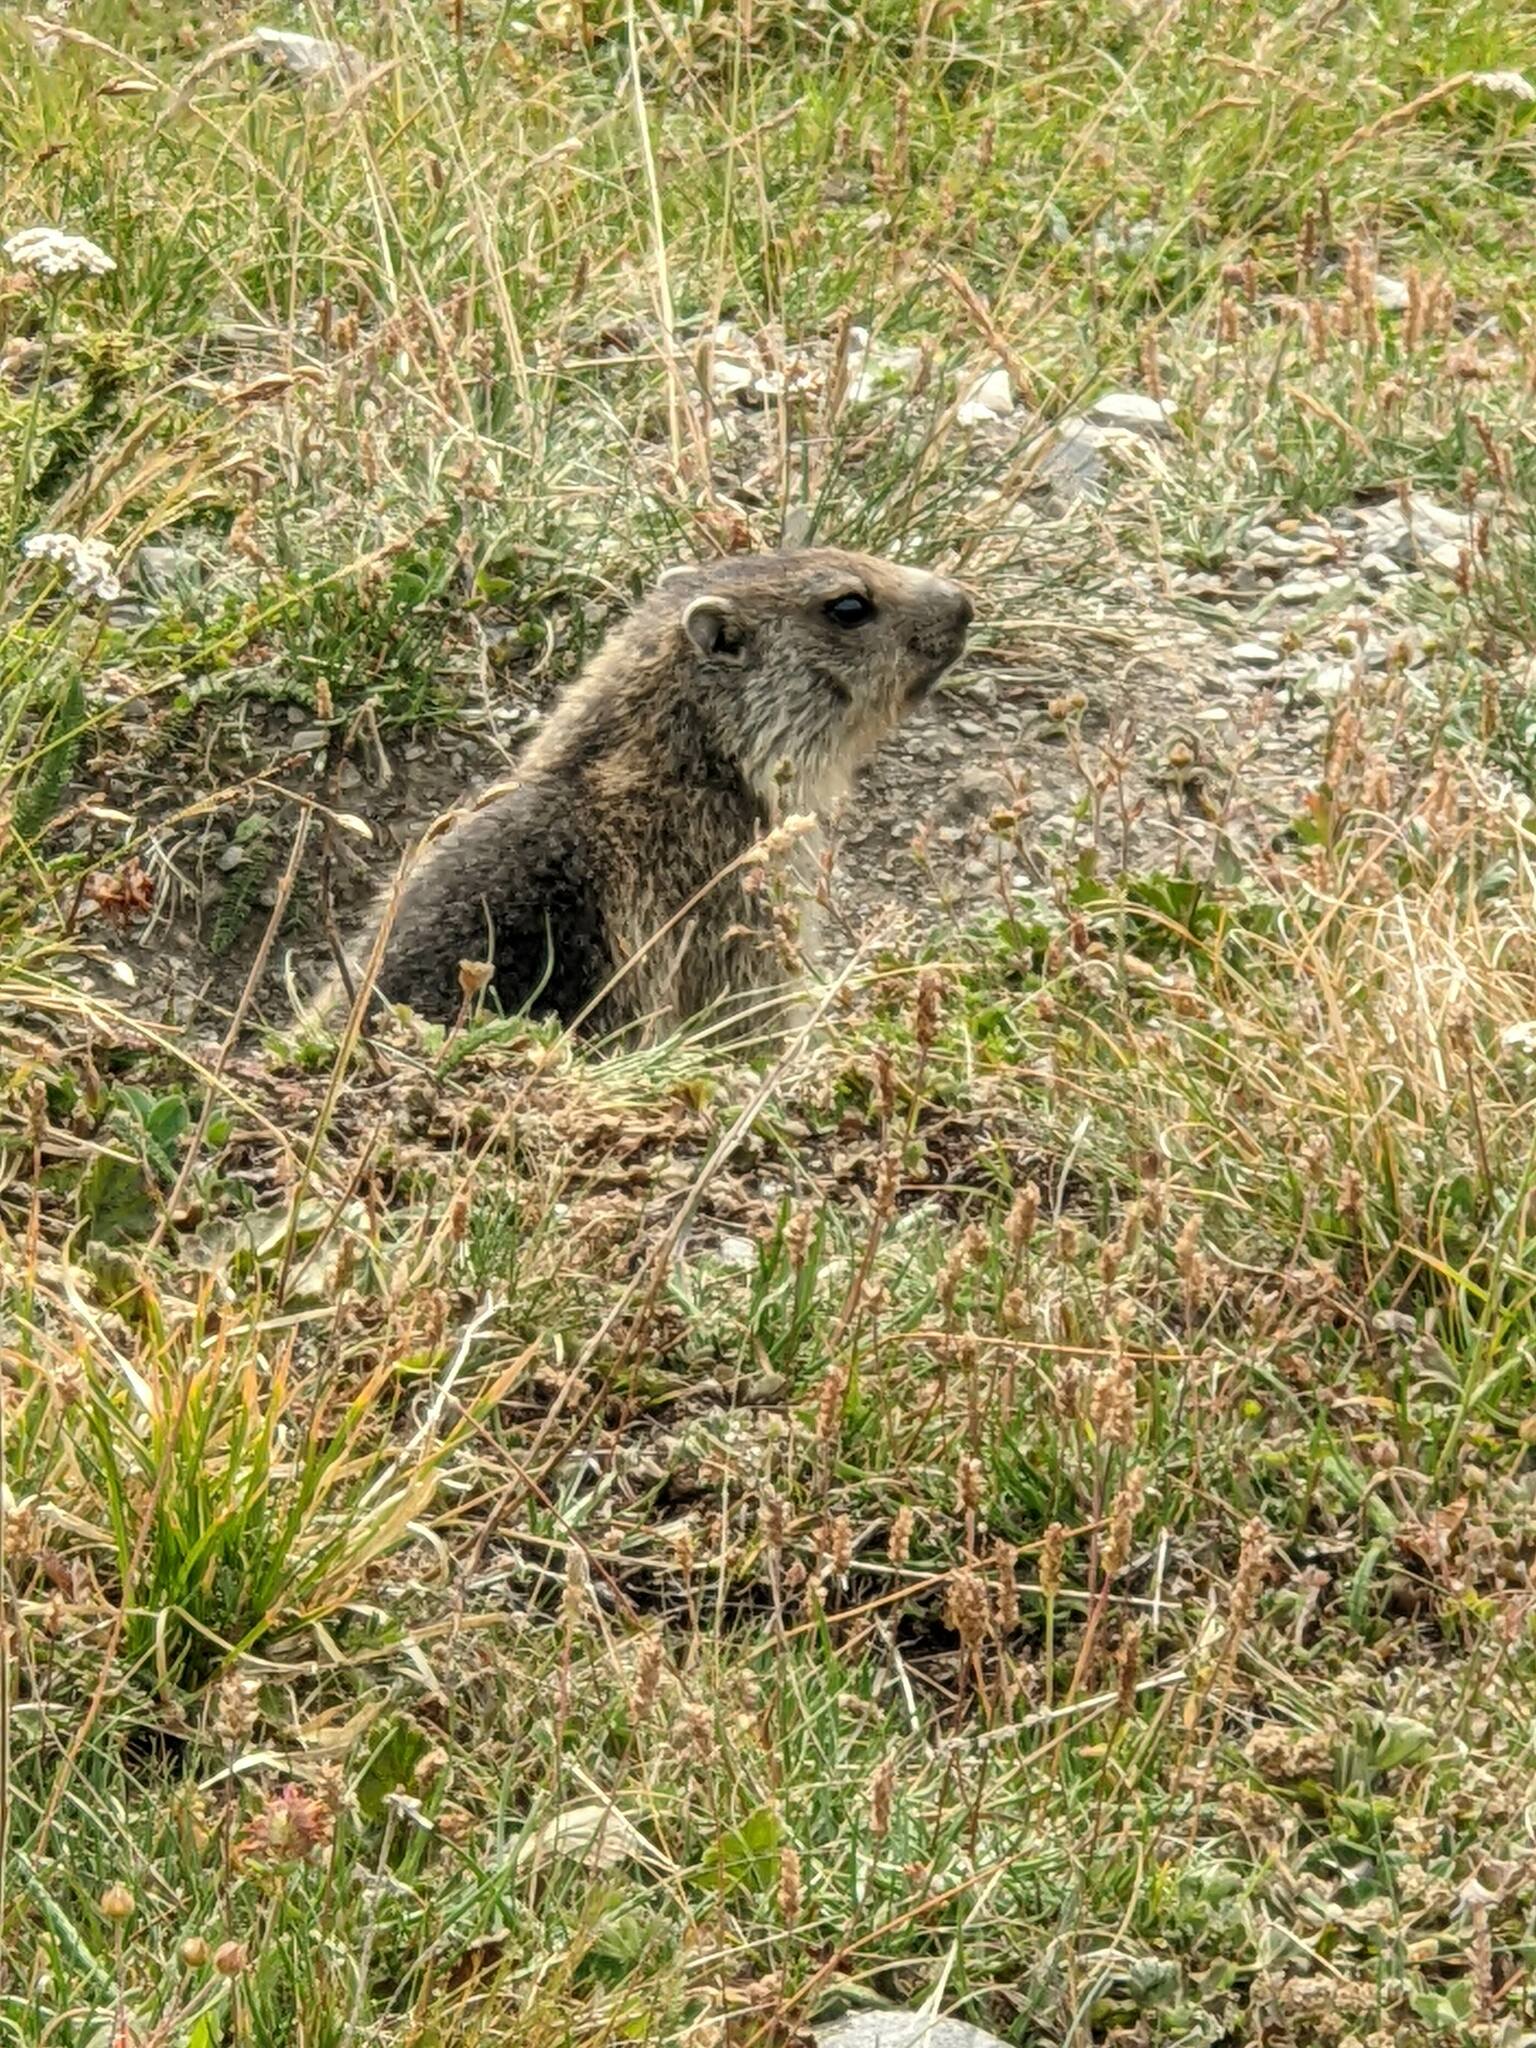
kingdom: Animalia
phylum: Chordata
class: Mammalia
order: Rodentia
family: Sciuridae
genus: Marmota
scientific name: Marmota marmota
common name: Alpine marmot
